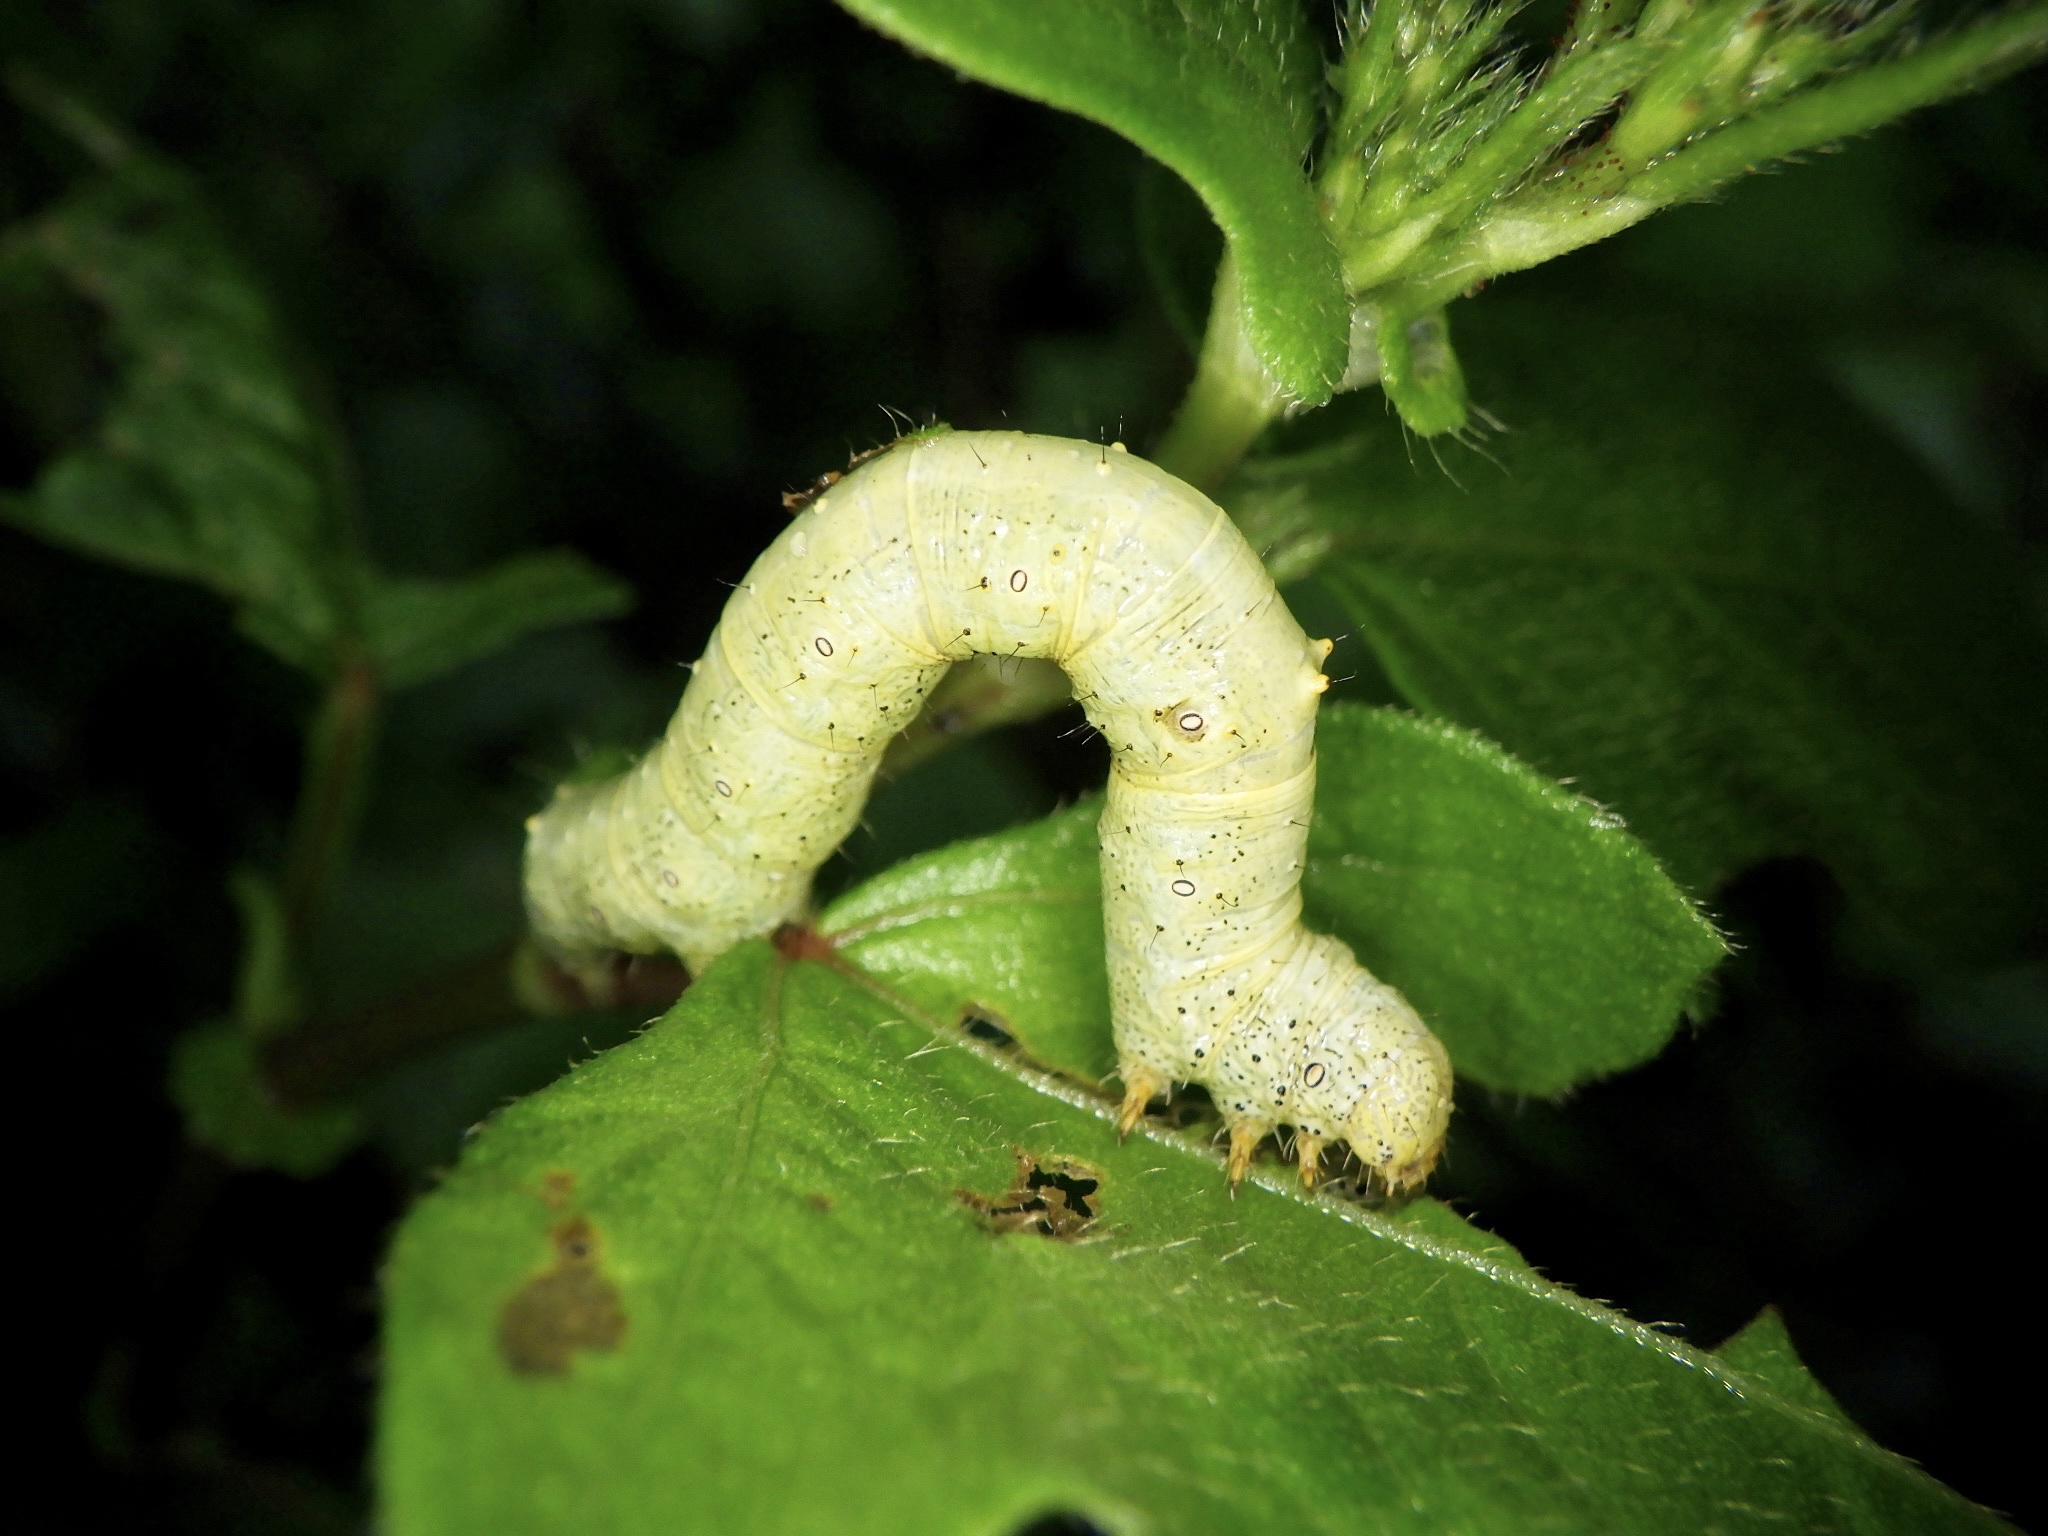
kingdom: Animalia
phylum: Arthropoda
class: Insecta
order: Lepidoptera
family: Geometridae
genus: Ascotis
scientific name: Ascotis selenaria
